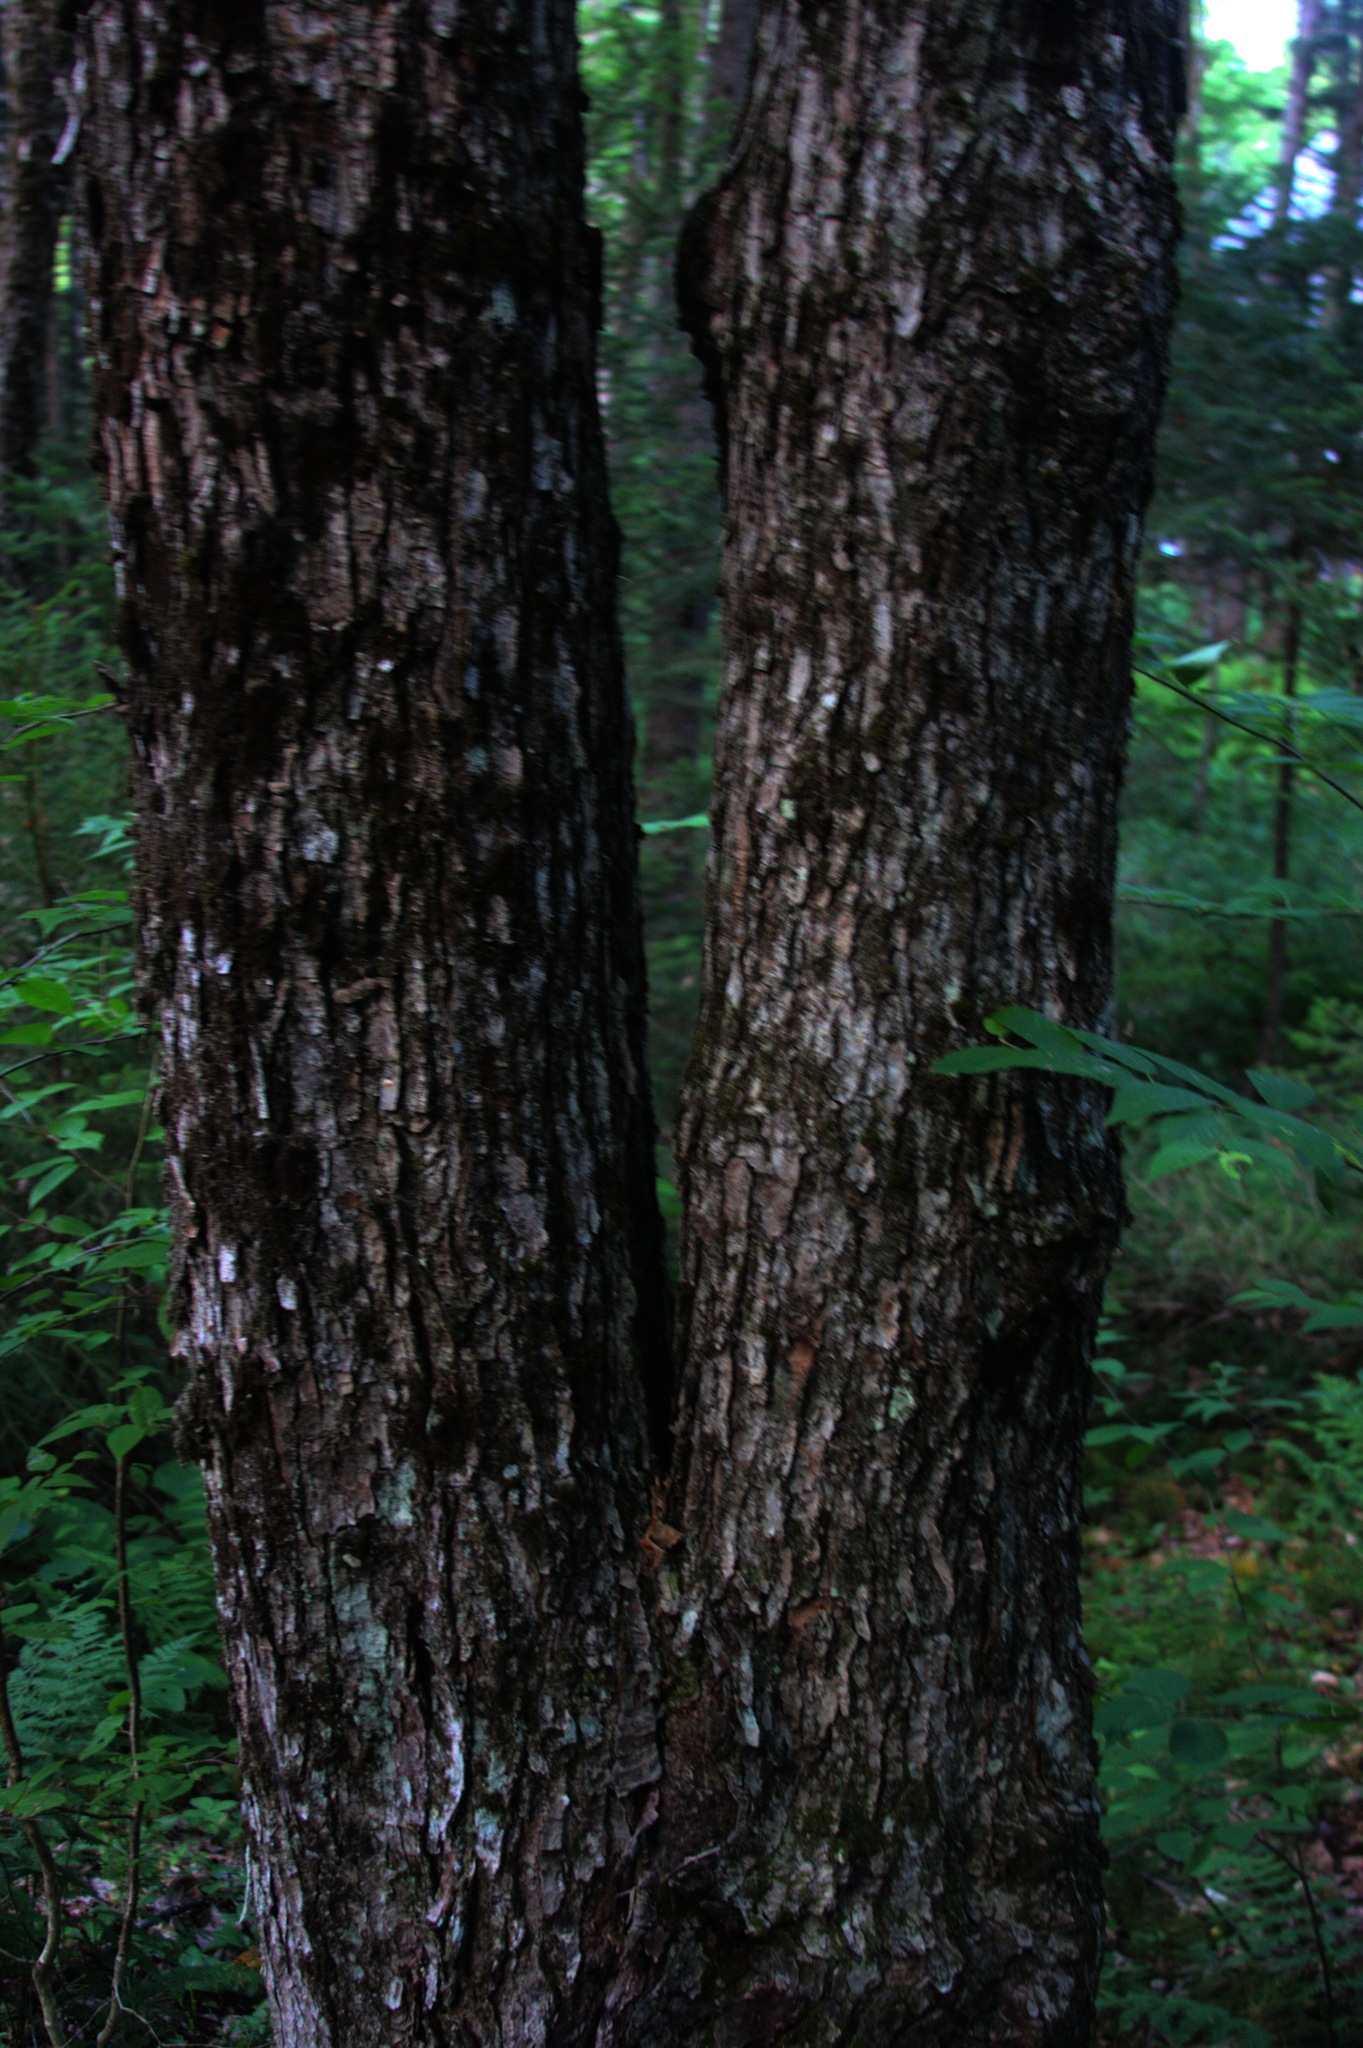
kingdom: Plantae
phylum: Tracheophyta
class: Magnoliopsida
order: Sapindales
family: Sapindaceae
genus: Acer
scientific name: Acer rubrum
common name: Red maple
